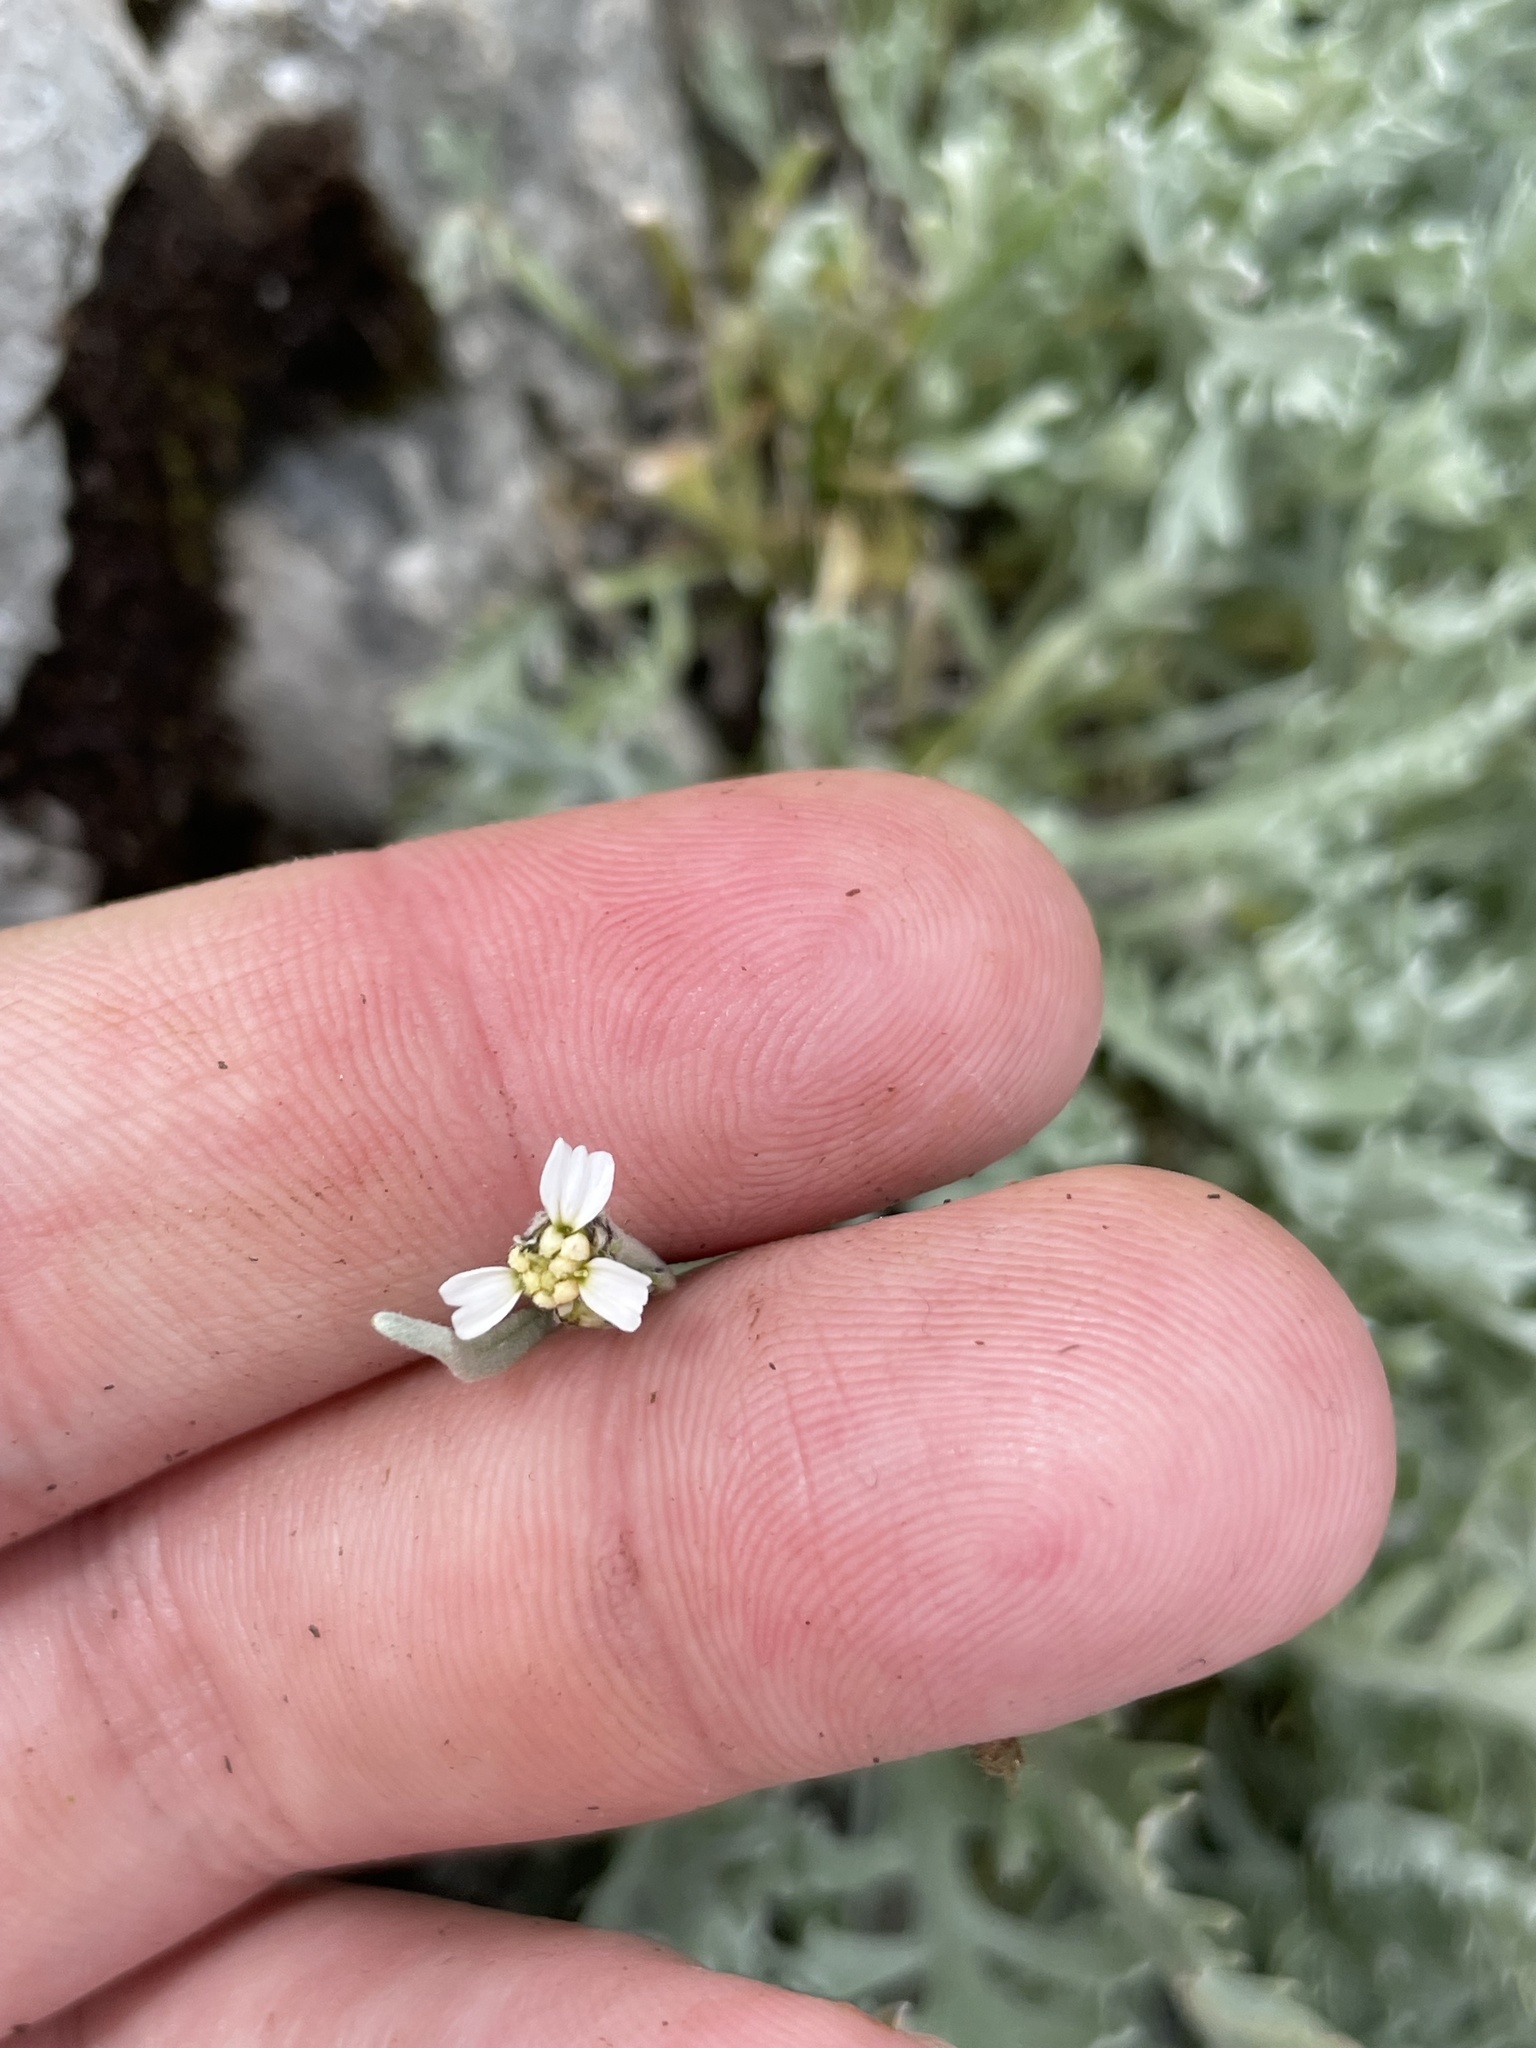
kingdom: Plantae
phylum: Tracheophyta
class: Magnoliopsida
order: Asterales
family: Asteraceae
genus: Achillea
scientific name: Achillea clavennae
